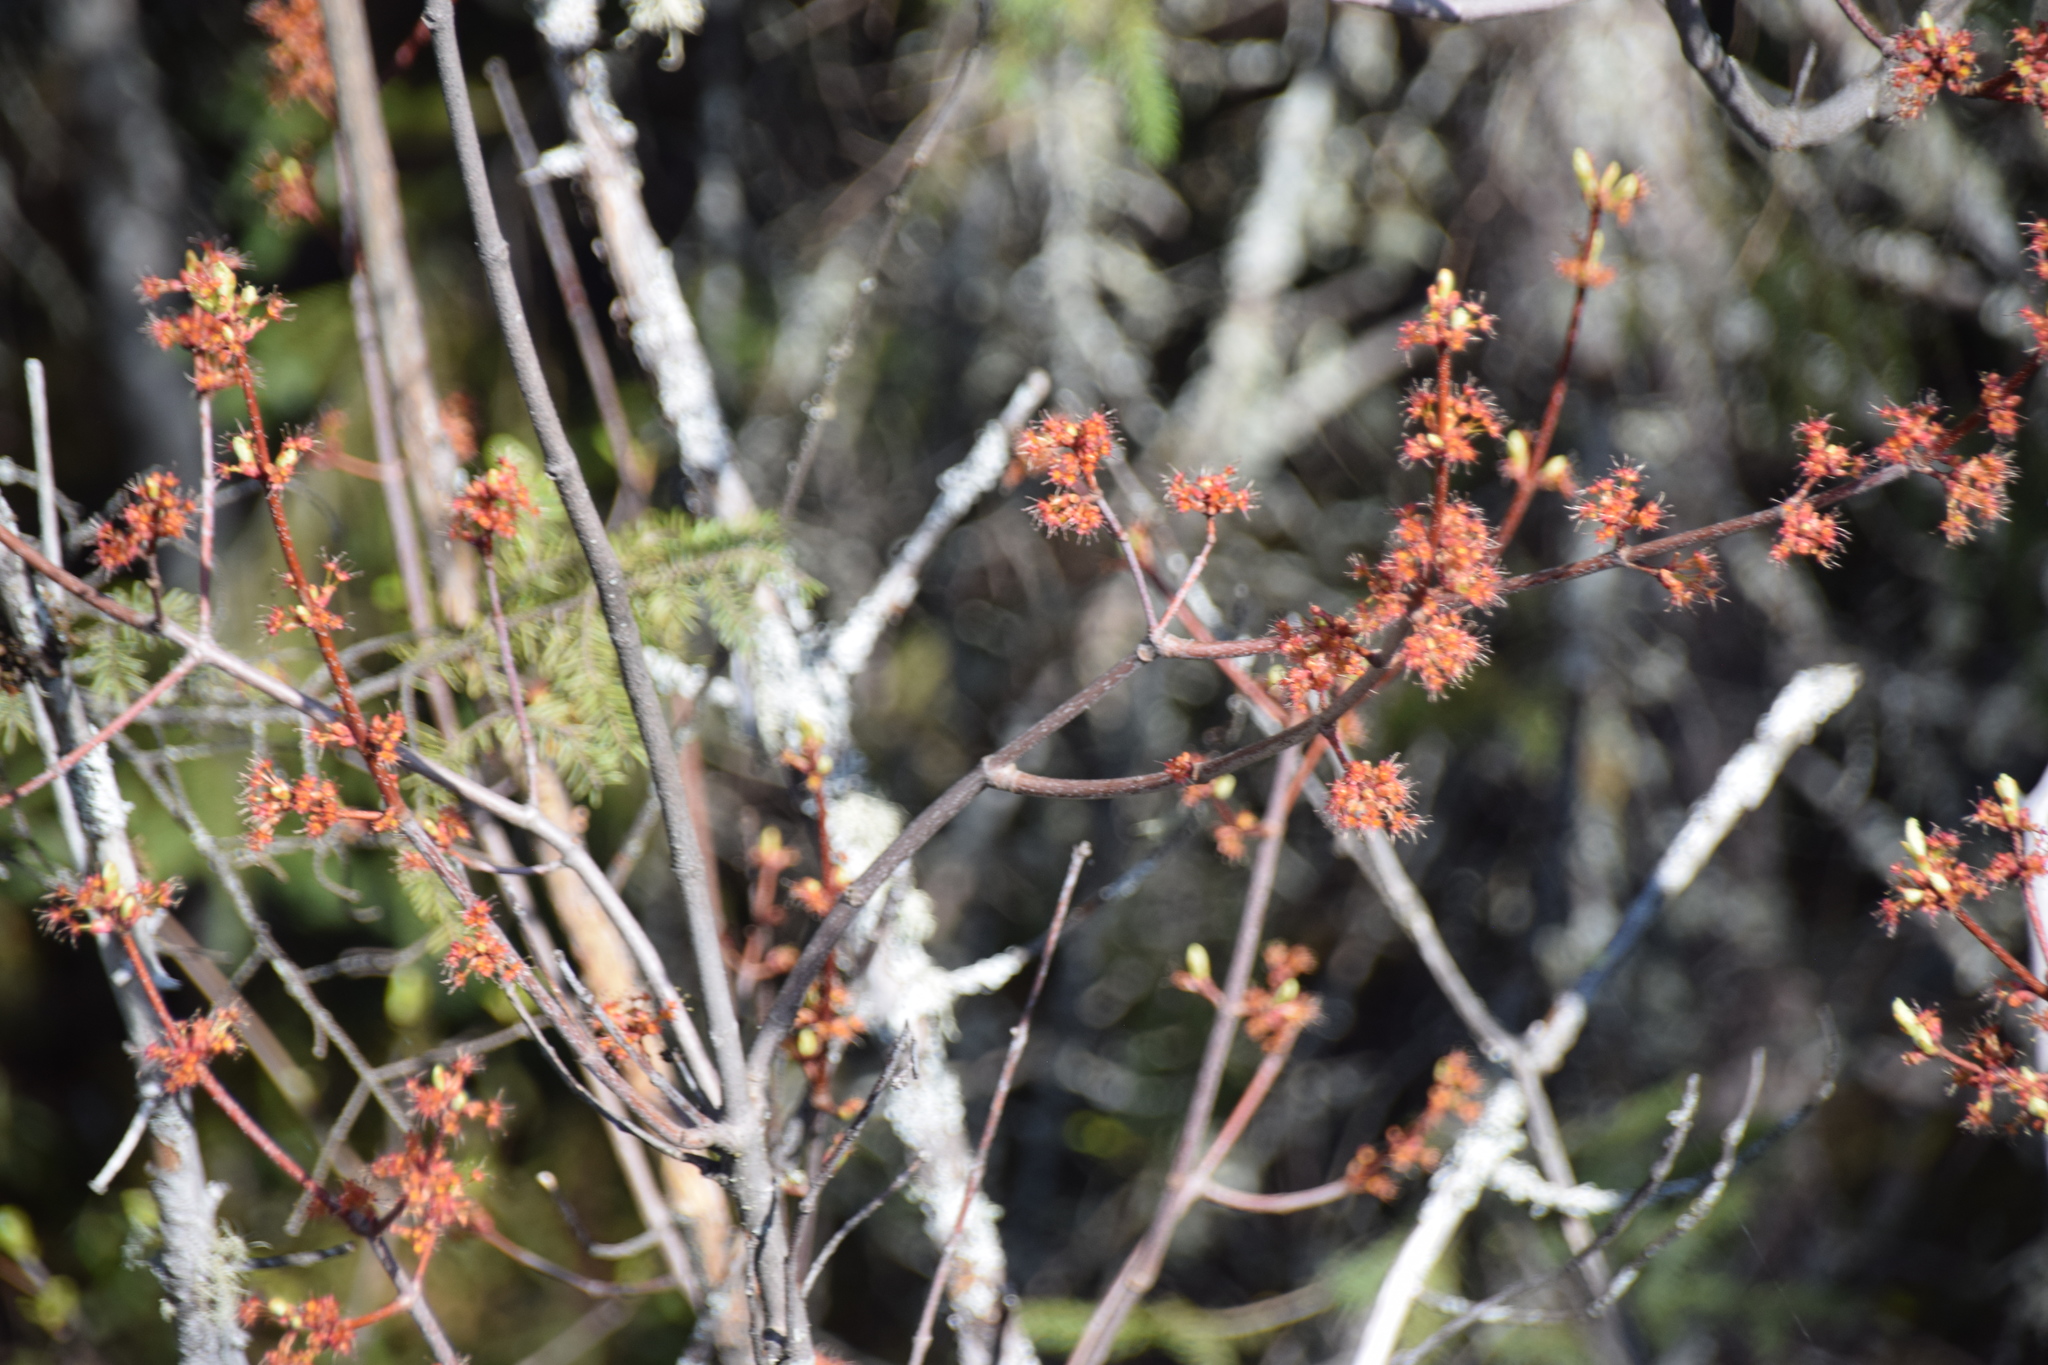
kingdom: Plantae
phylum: Tracheophyta
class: Magnoliopsida
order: Sapindales
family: Sapindaceae
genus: Acer
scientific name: Acer rubrum
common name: Red maple
